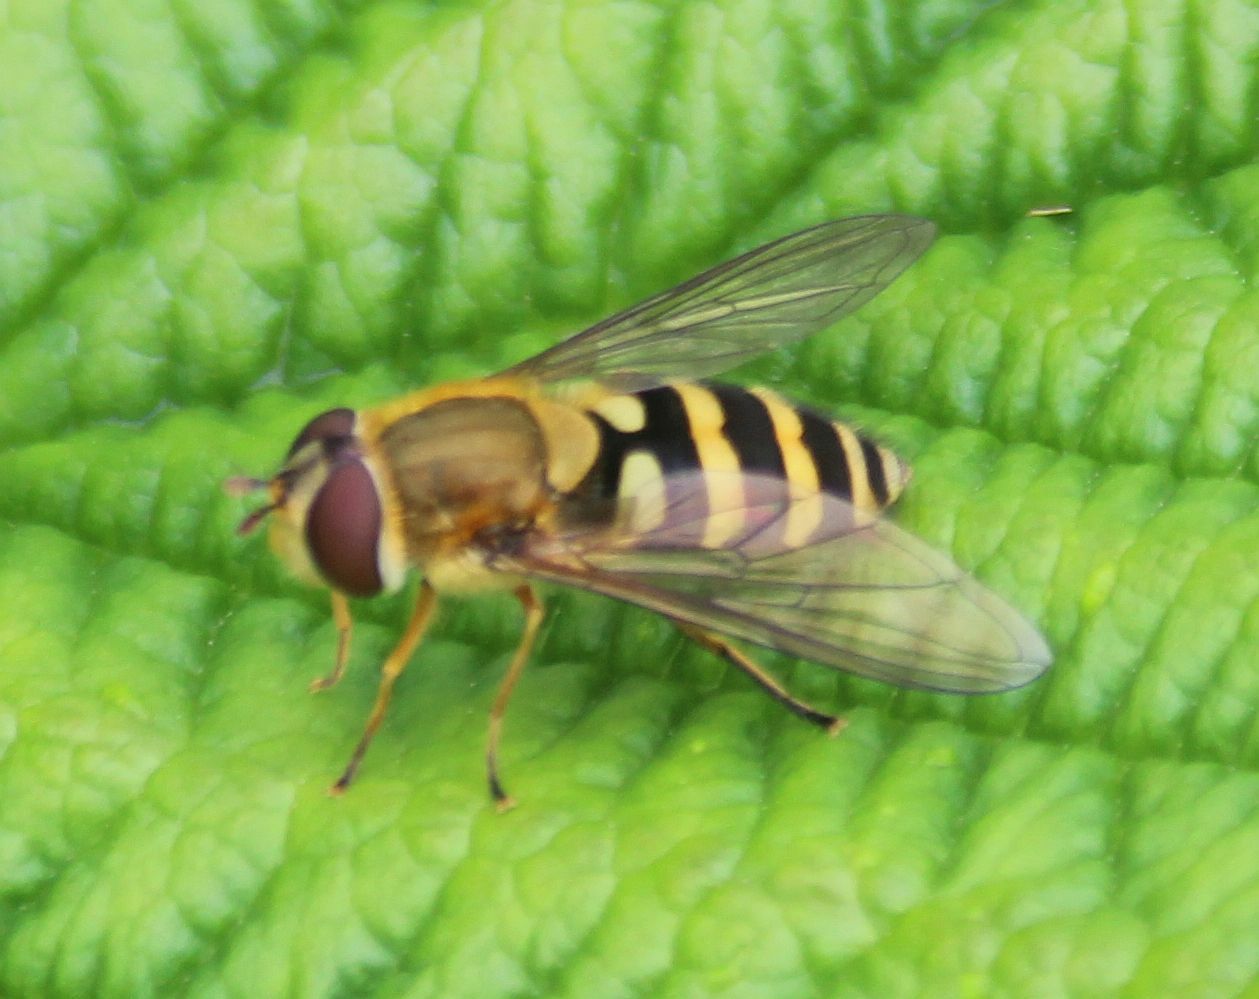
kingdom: Animalia
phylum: Arthropoda
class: Insecta
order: Diptera
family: Syrphidae
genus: Syrphus
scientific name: Syrphus
